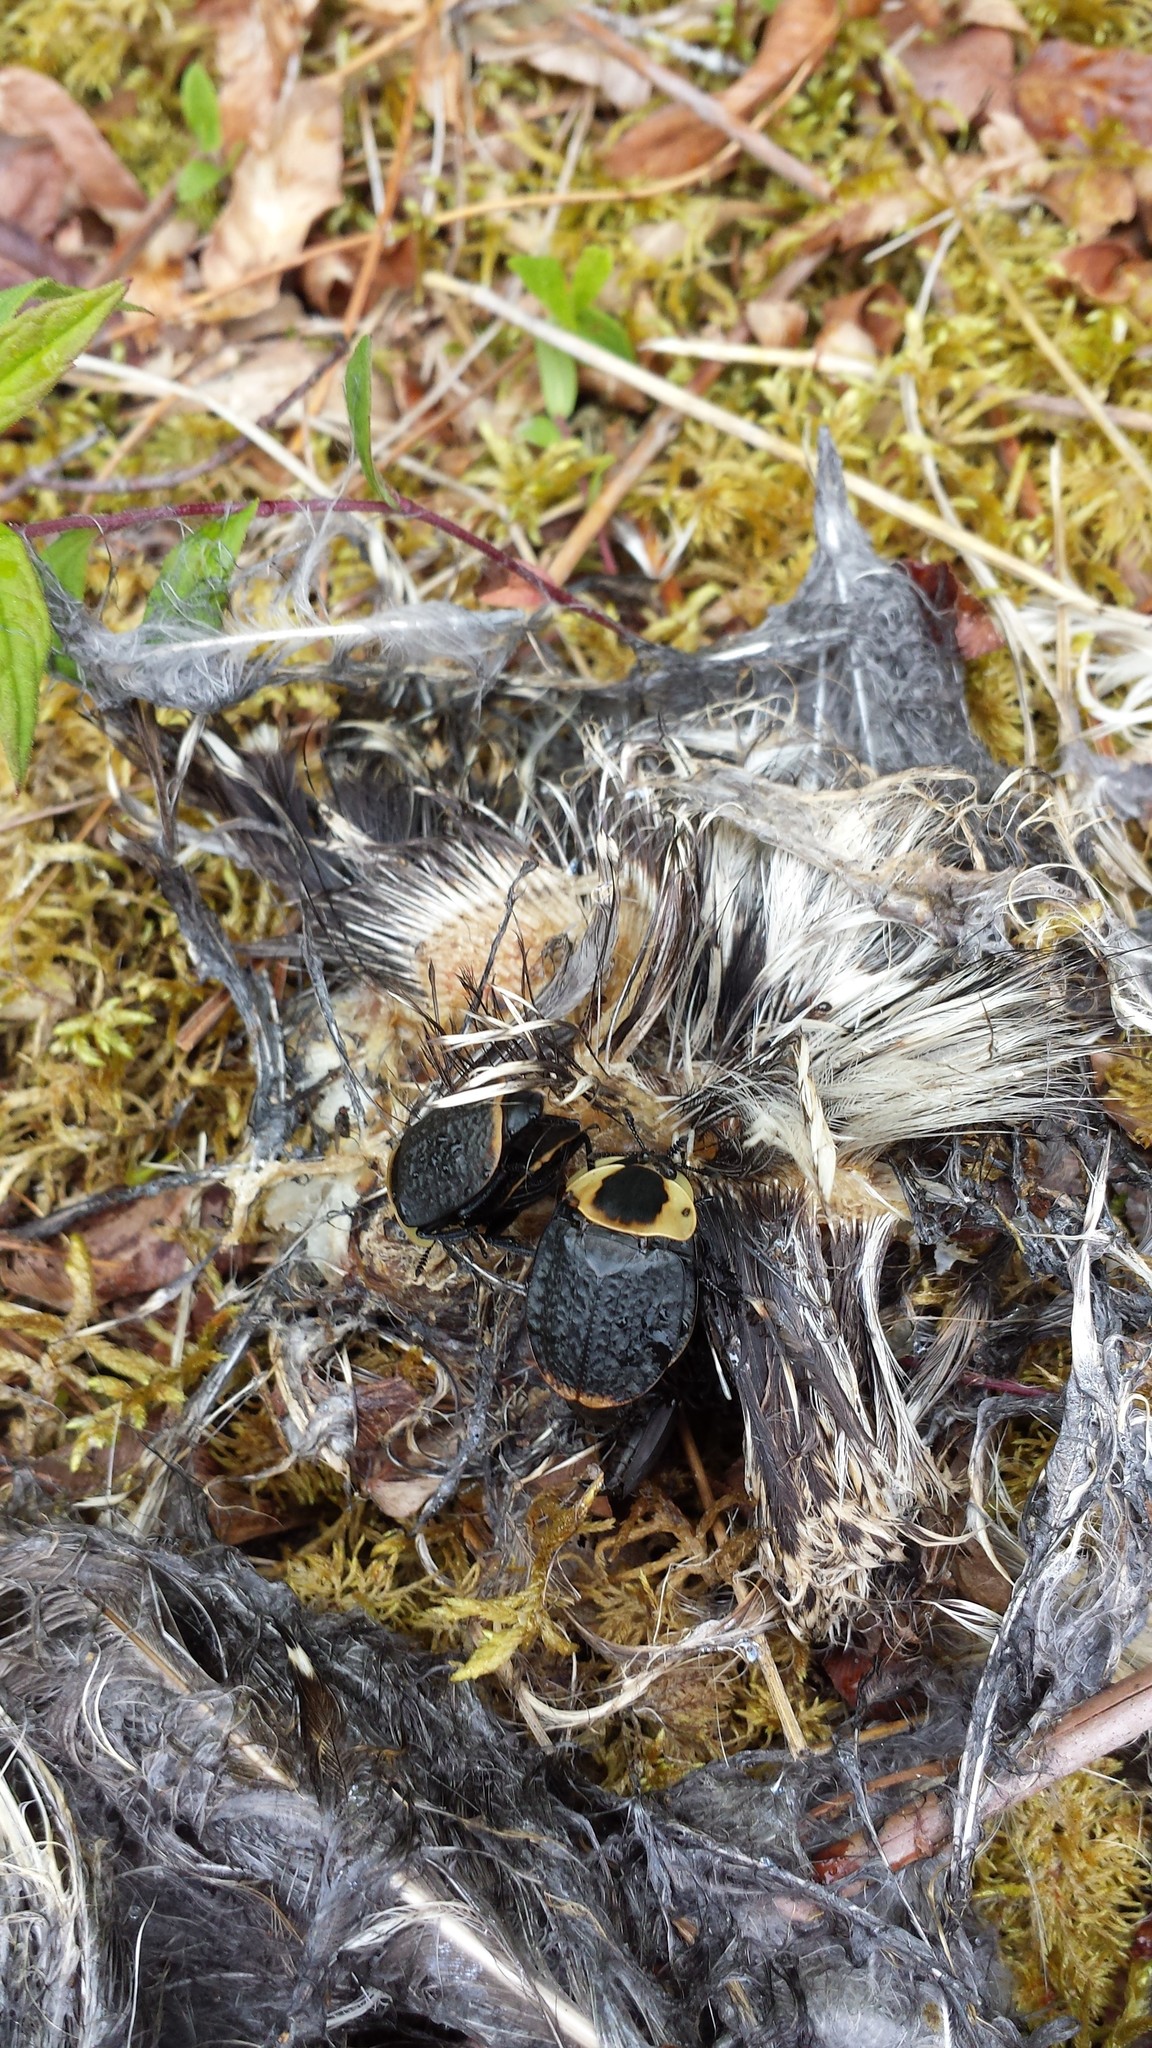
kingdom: Animalia
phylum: Arthropoda
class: Insecta
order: Coleoptera
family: Staphylinidae
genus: Necrophila
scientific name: Necrophila americana
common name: American carrion beetle
